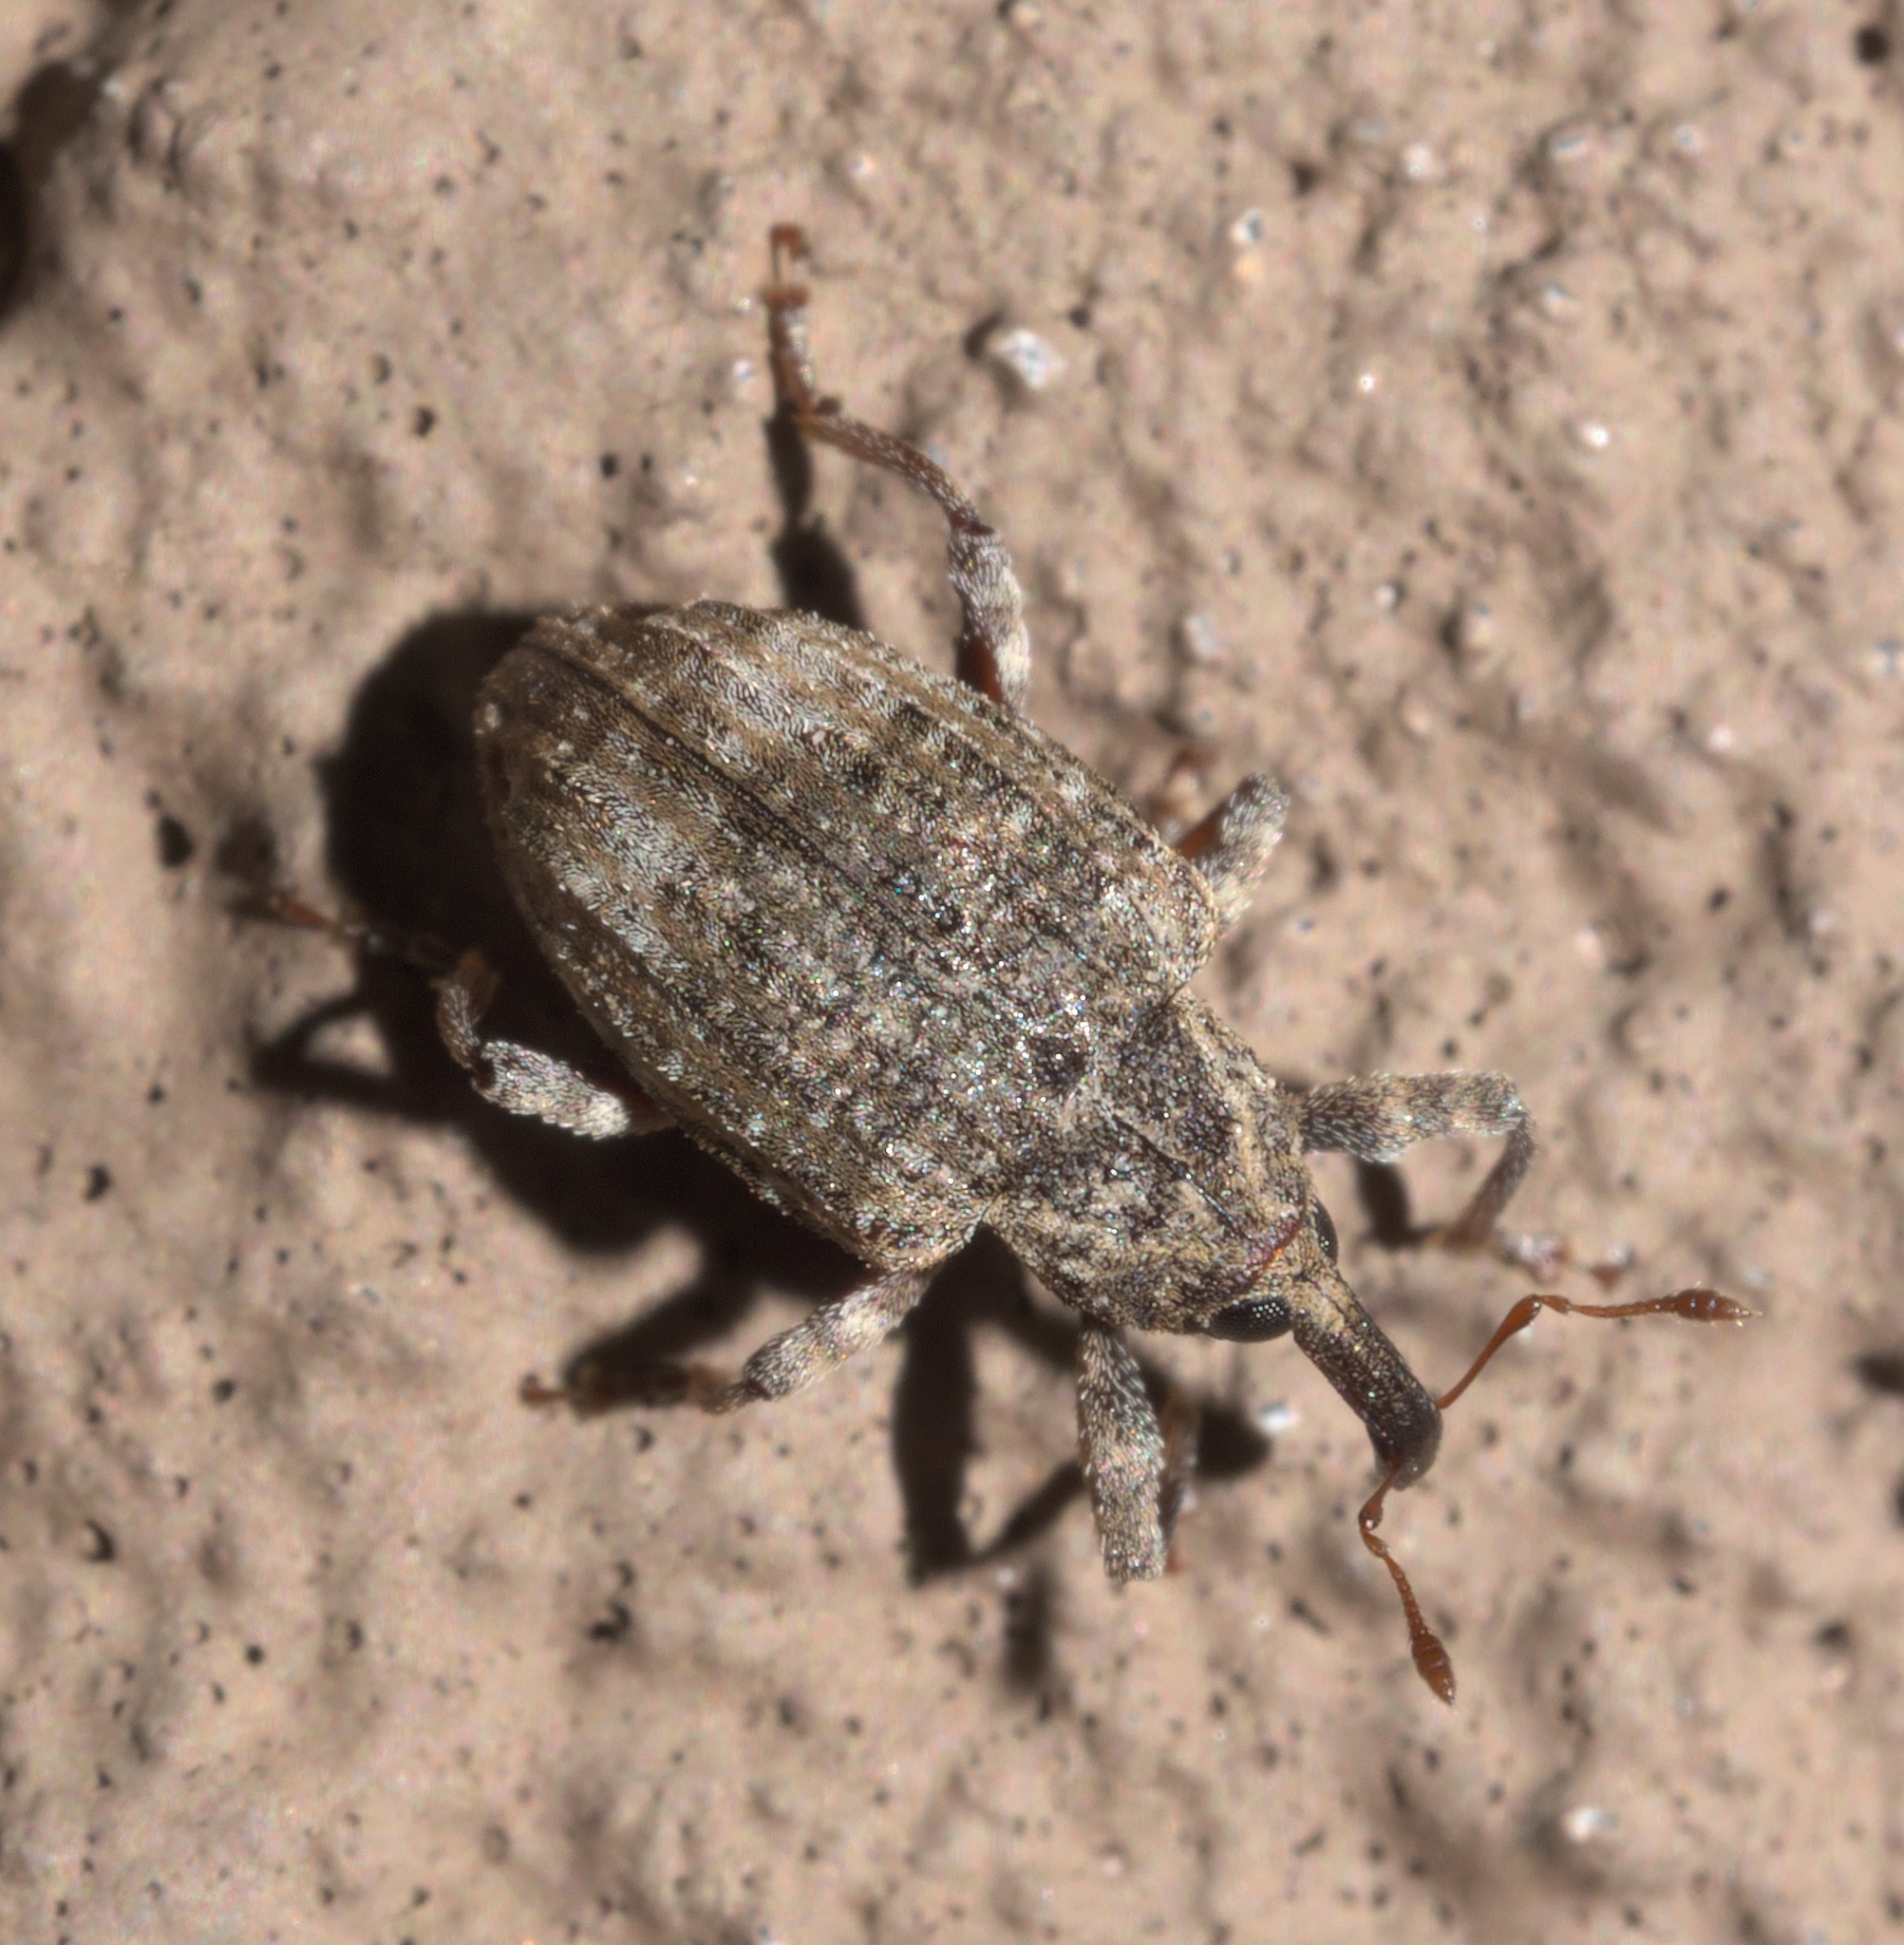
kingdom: Animalia
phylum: Arthropoda
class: Insecta
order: Coleoptera
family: Curculionidae
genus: Conotrachelus
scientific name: Conotrachelus seniculus
